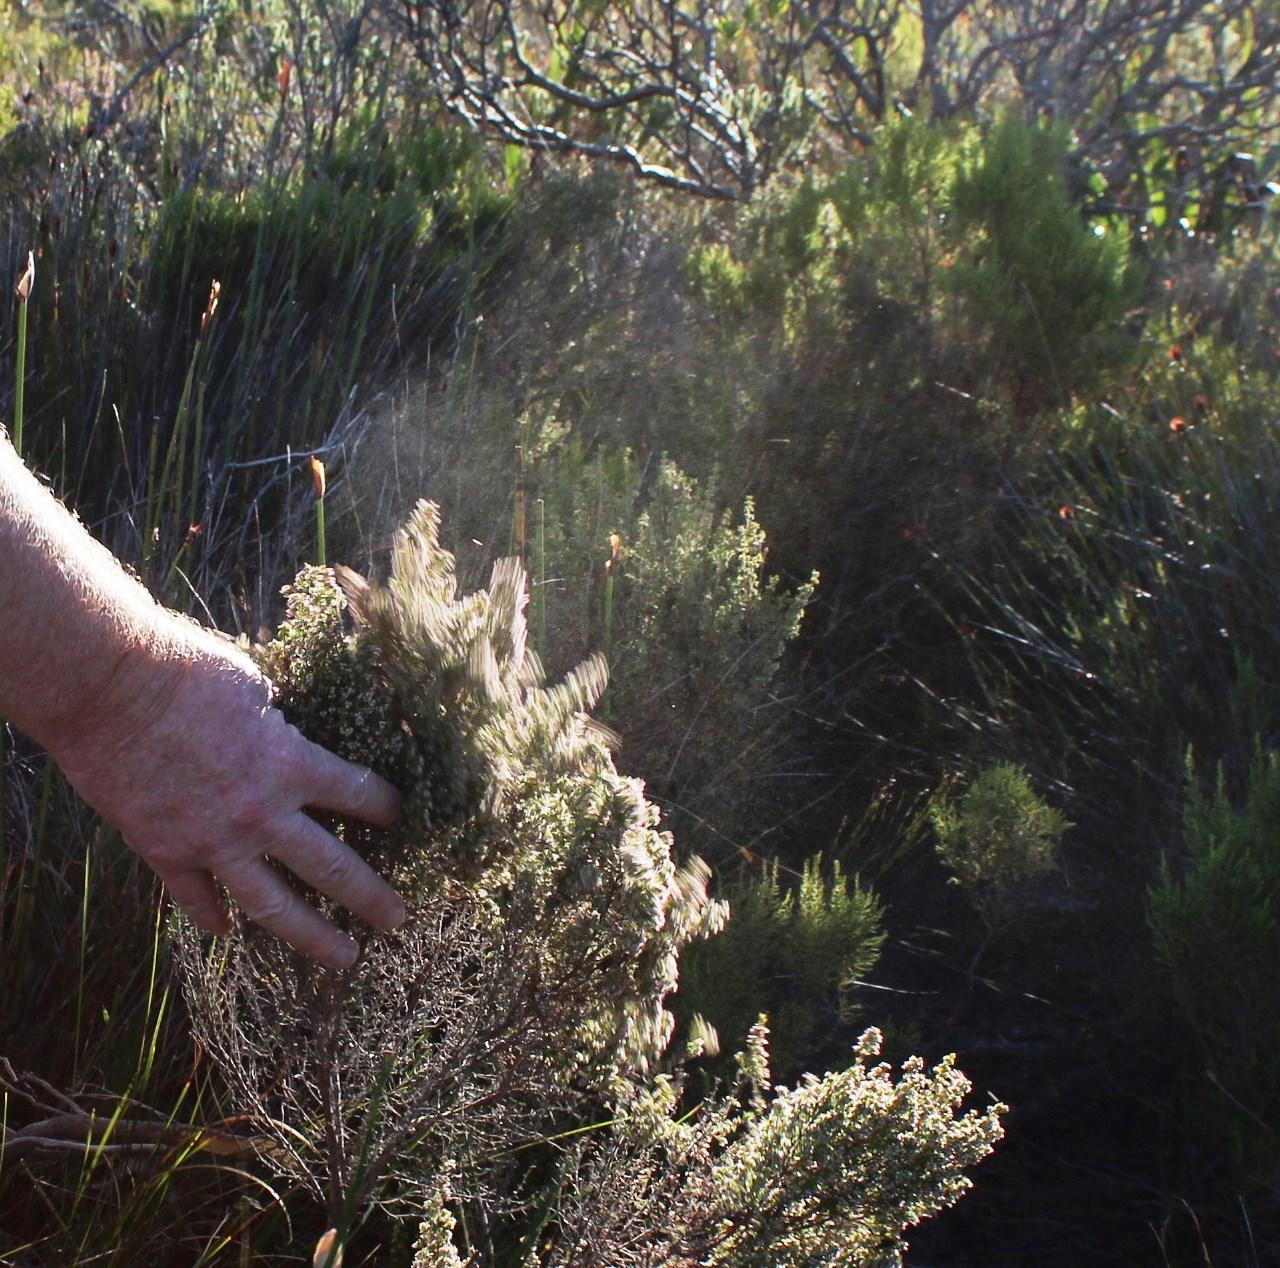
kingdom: Plantae
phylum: Tracheophyta
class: Magnoliopsida
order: Ericales
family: Ericaceae
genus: Erica
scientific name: Erica hispidula
